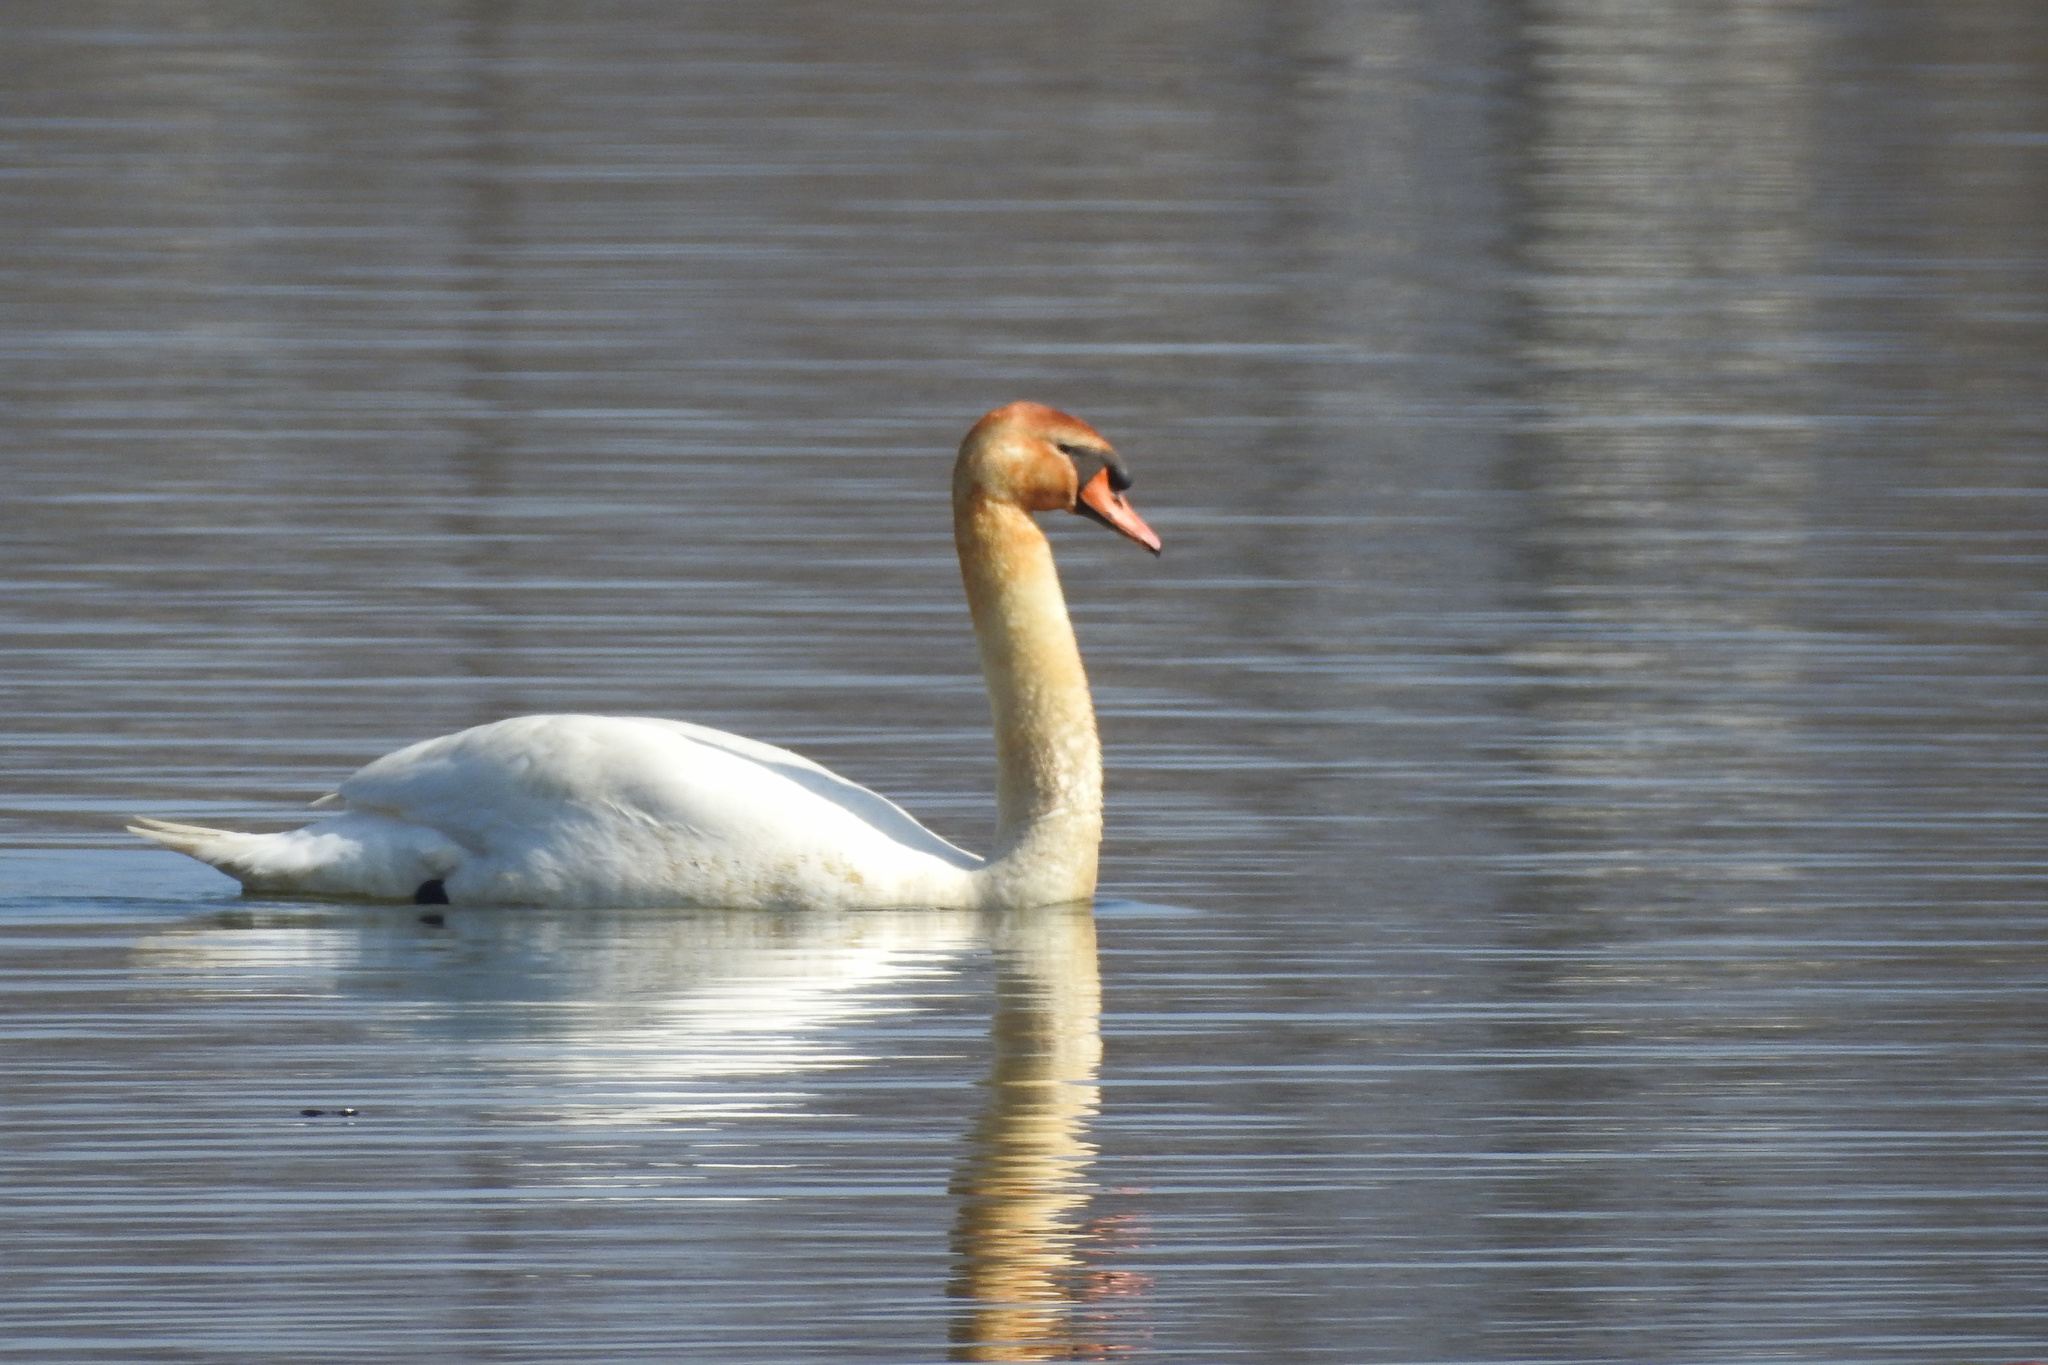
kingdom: Animalia
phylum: Chordata
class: Aves
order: Anseriformes
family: Anatidae
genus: Cygnus
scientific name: Cygnus olor
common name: Mute swan
